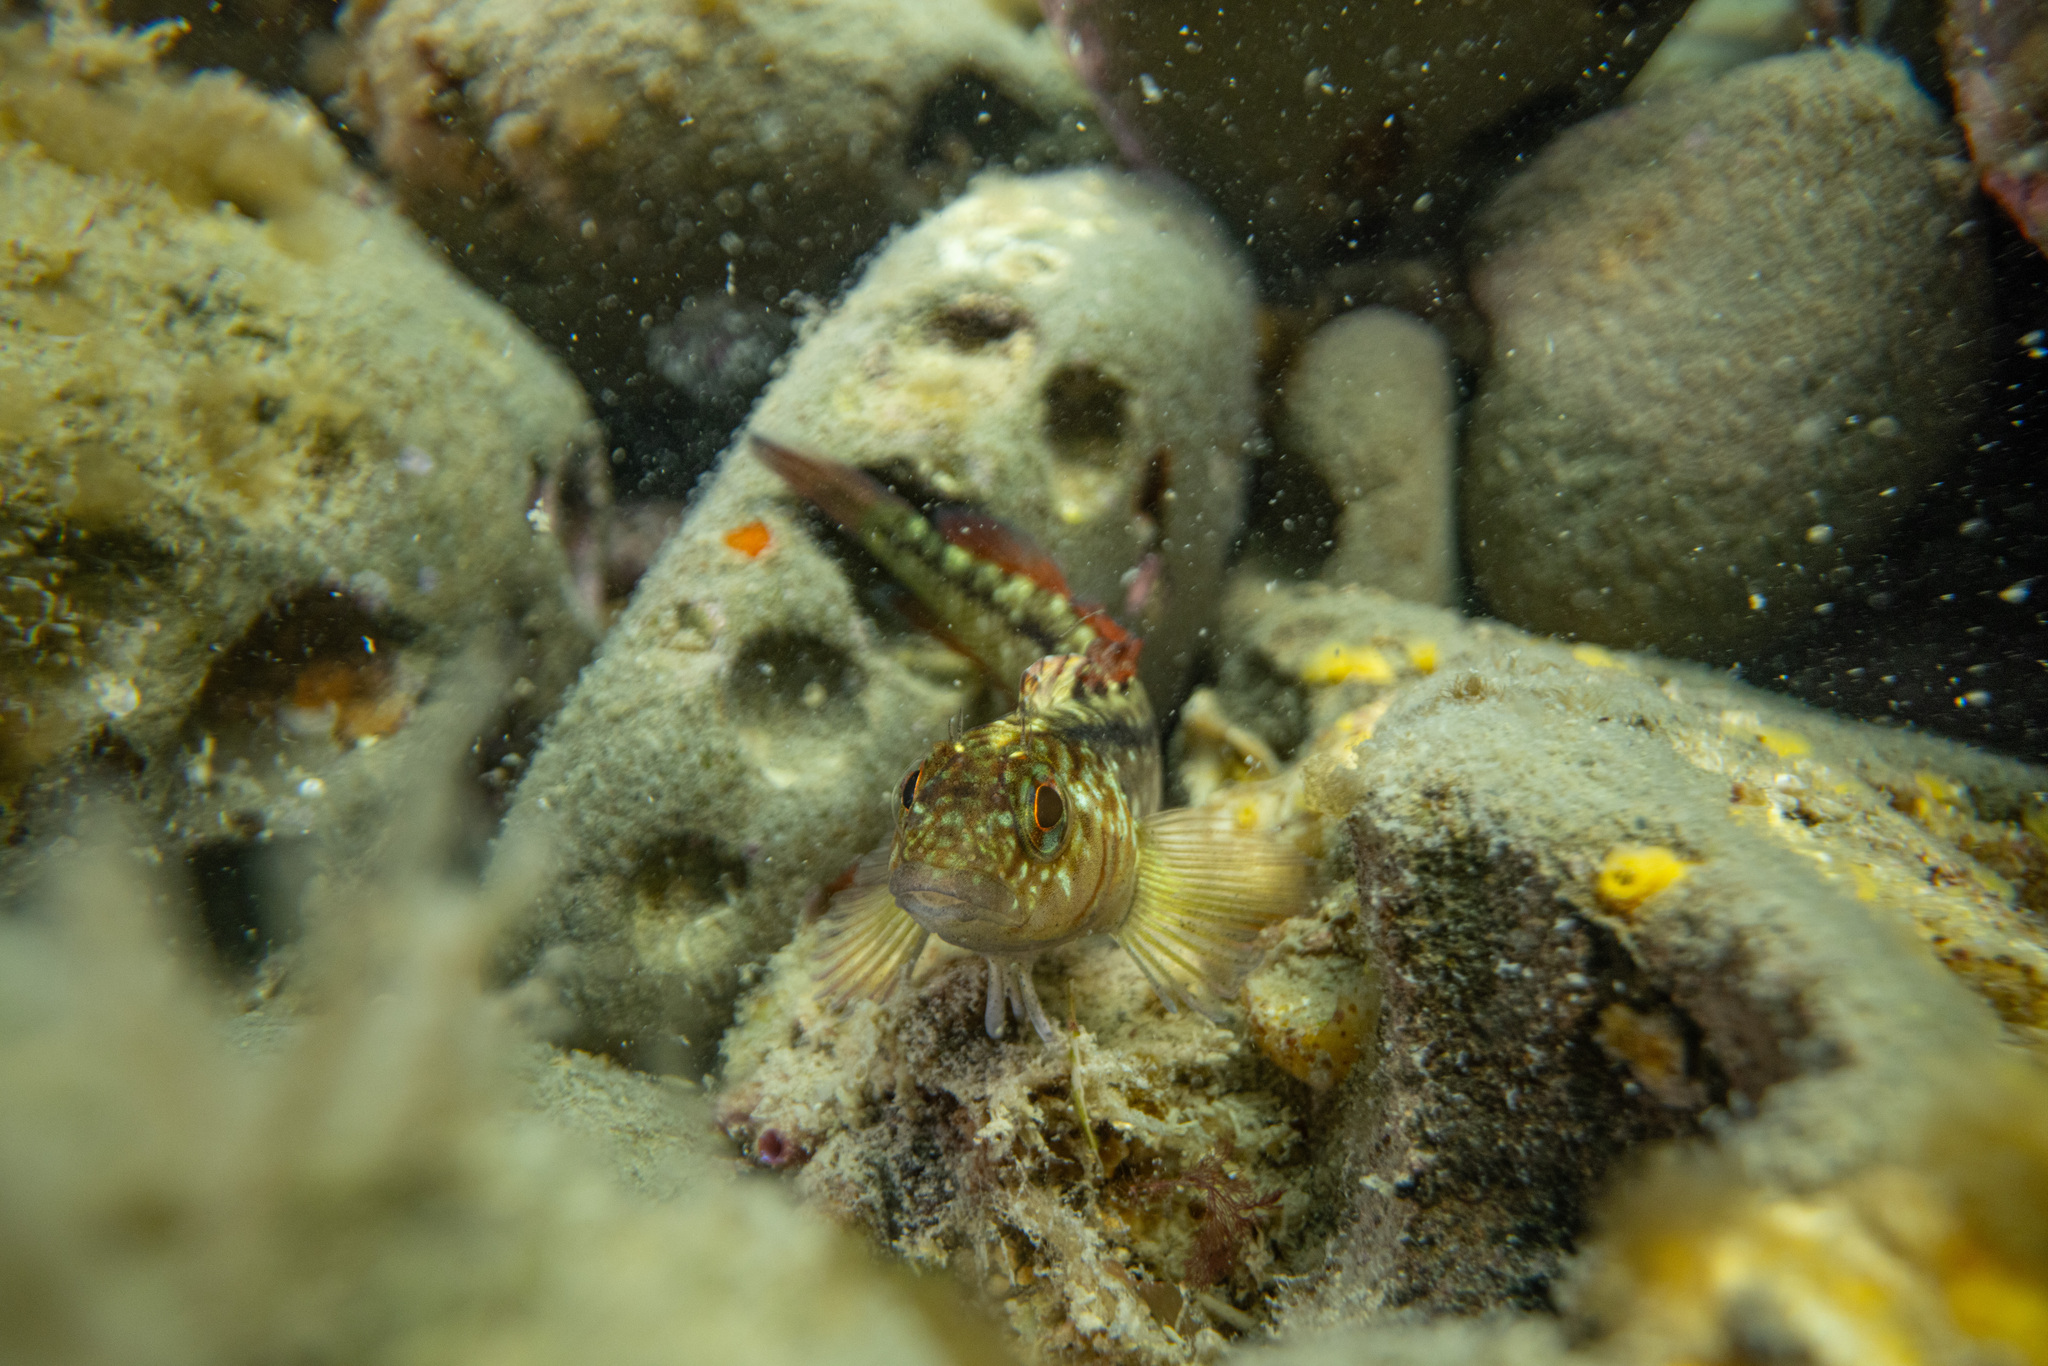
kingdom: Animalia
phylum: Chordata
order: Perciformes
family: Tripterygiidae
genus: Forsterygion
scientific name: Forsterygion lapillum
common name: Common triplefin
